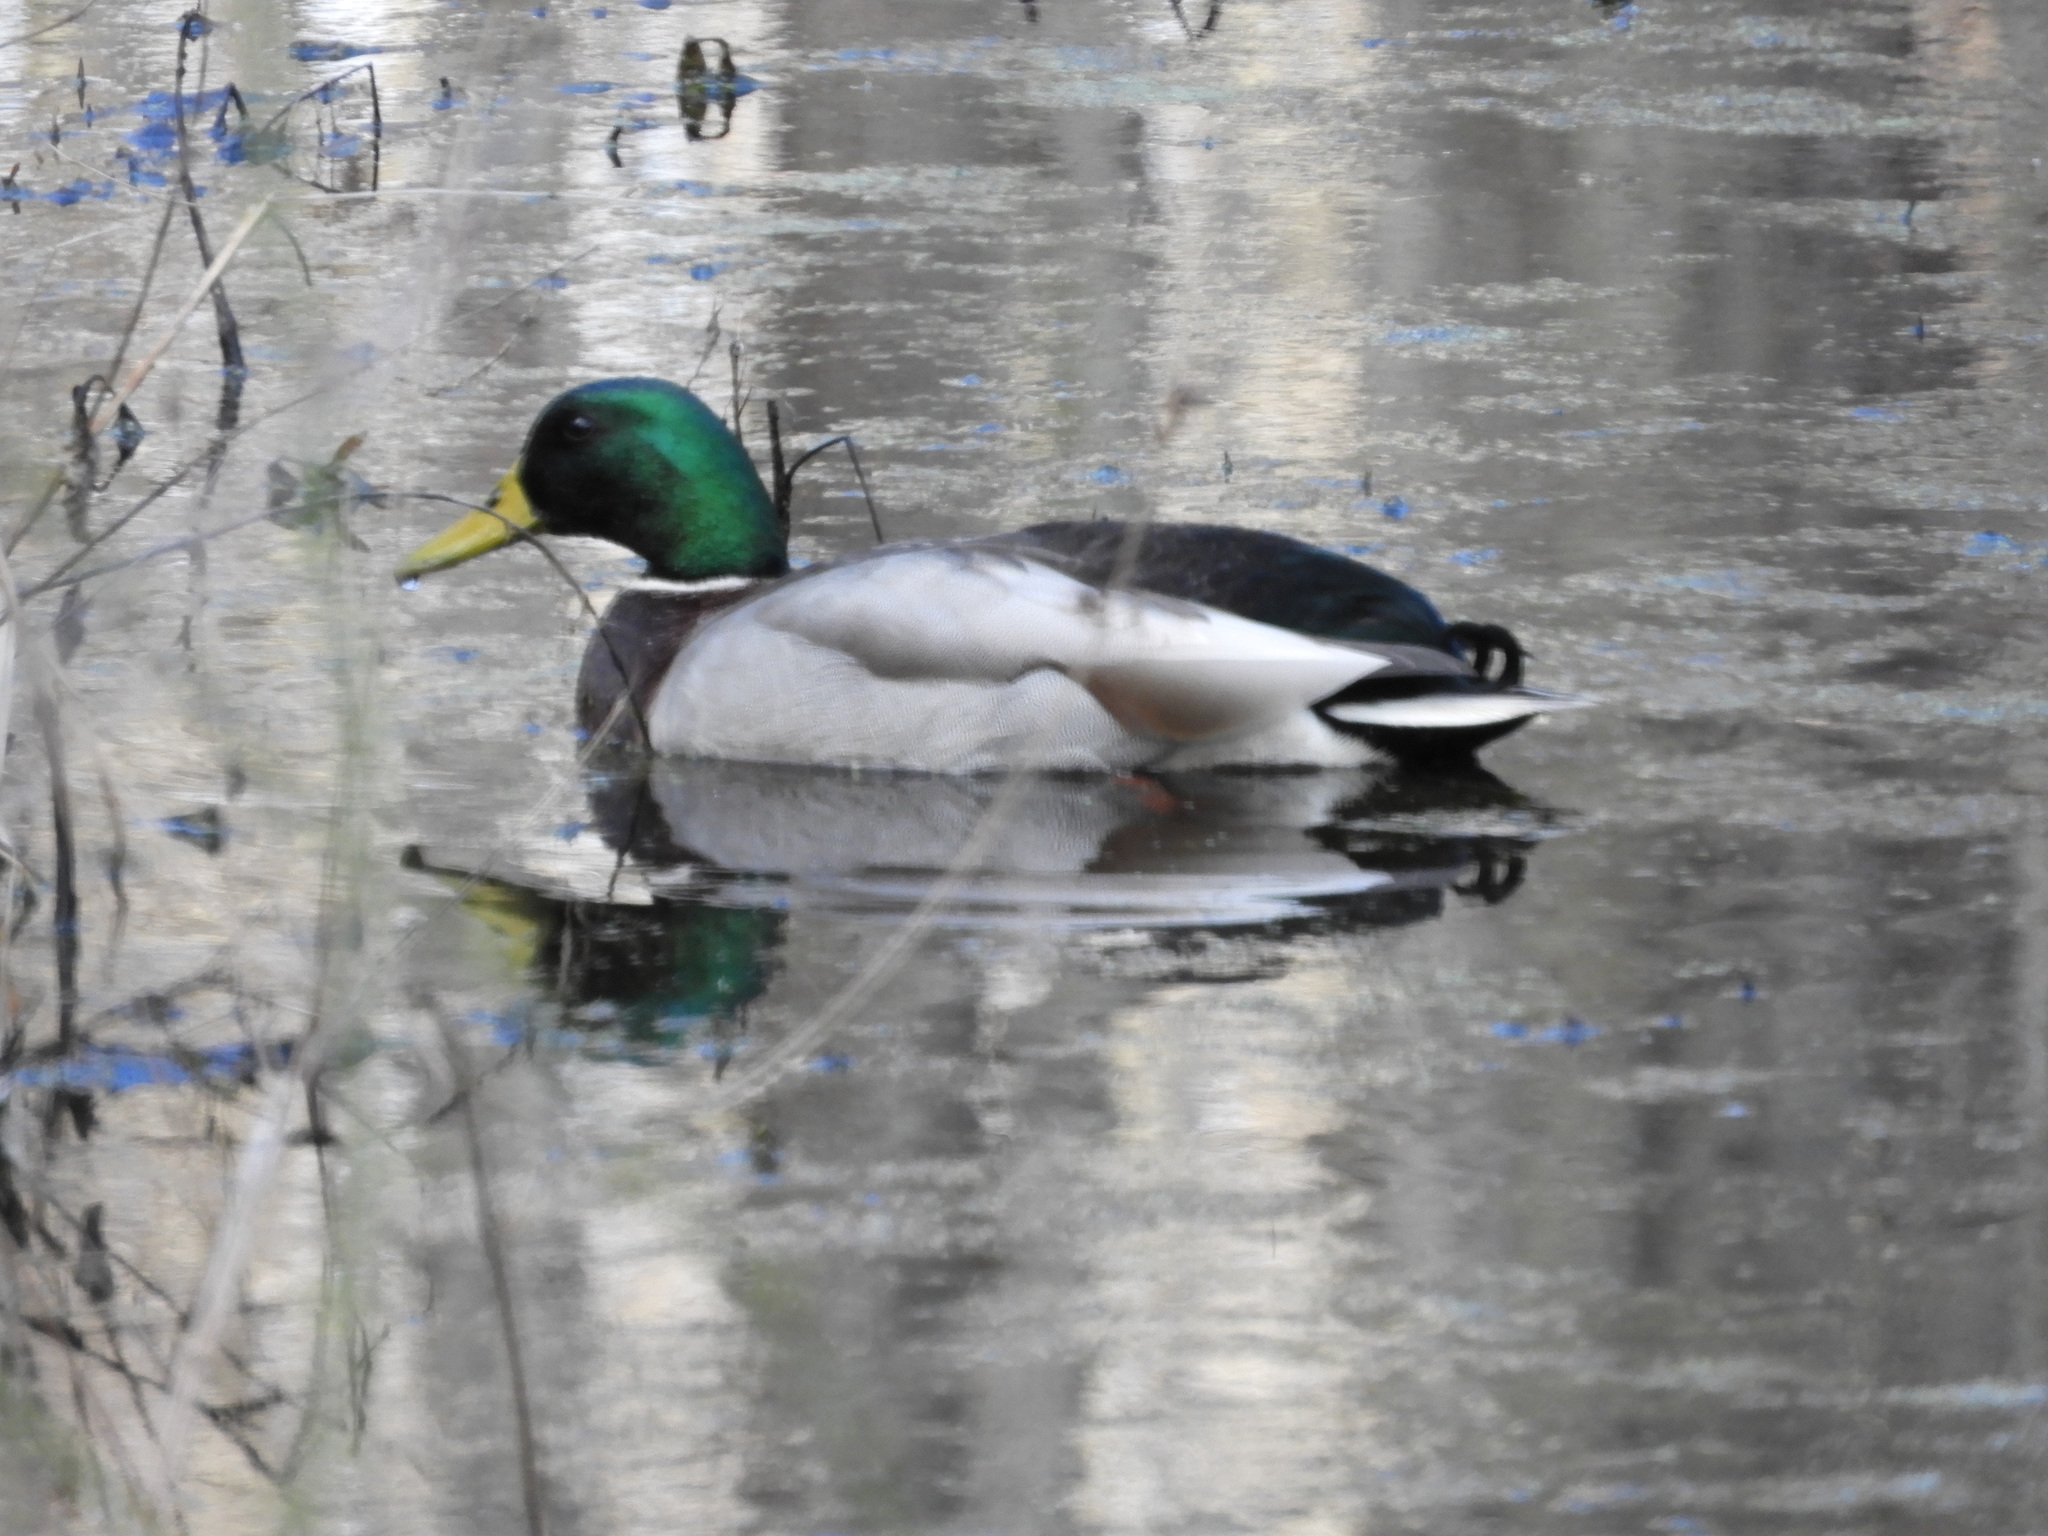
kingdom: Animalia
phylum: Chordata
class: Aves
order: Anseriformes
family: Anatidae
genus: Anas
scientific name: Anas platyrhynchos
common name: Mallard
